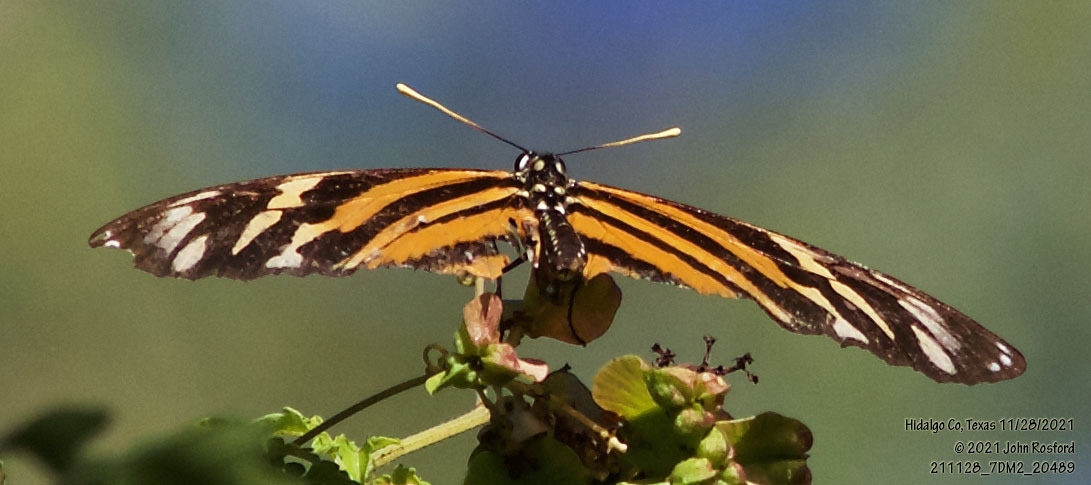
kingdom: Animalia
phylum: Arthropoda
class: Insecta
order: Lepidoptera
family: Nymphalidae
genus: Eueides
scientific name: Eueides isabella
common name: Isabella's longwing
